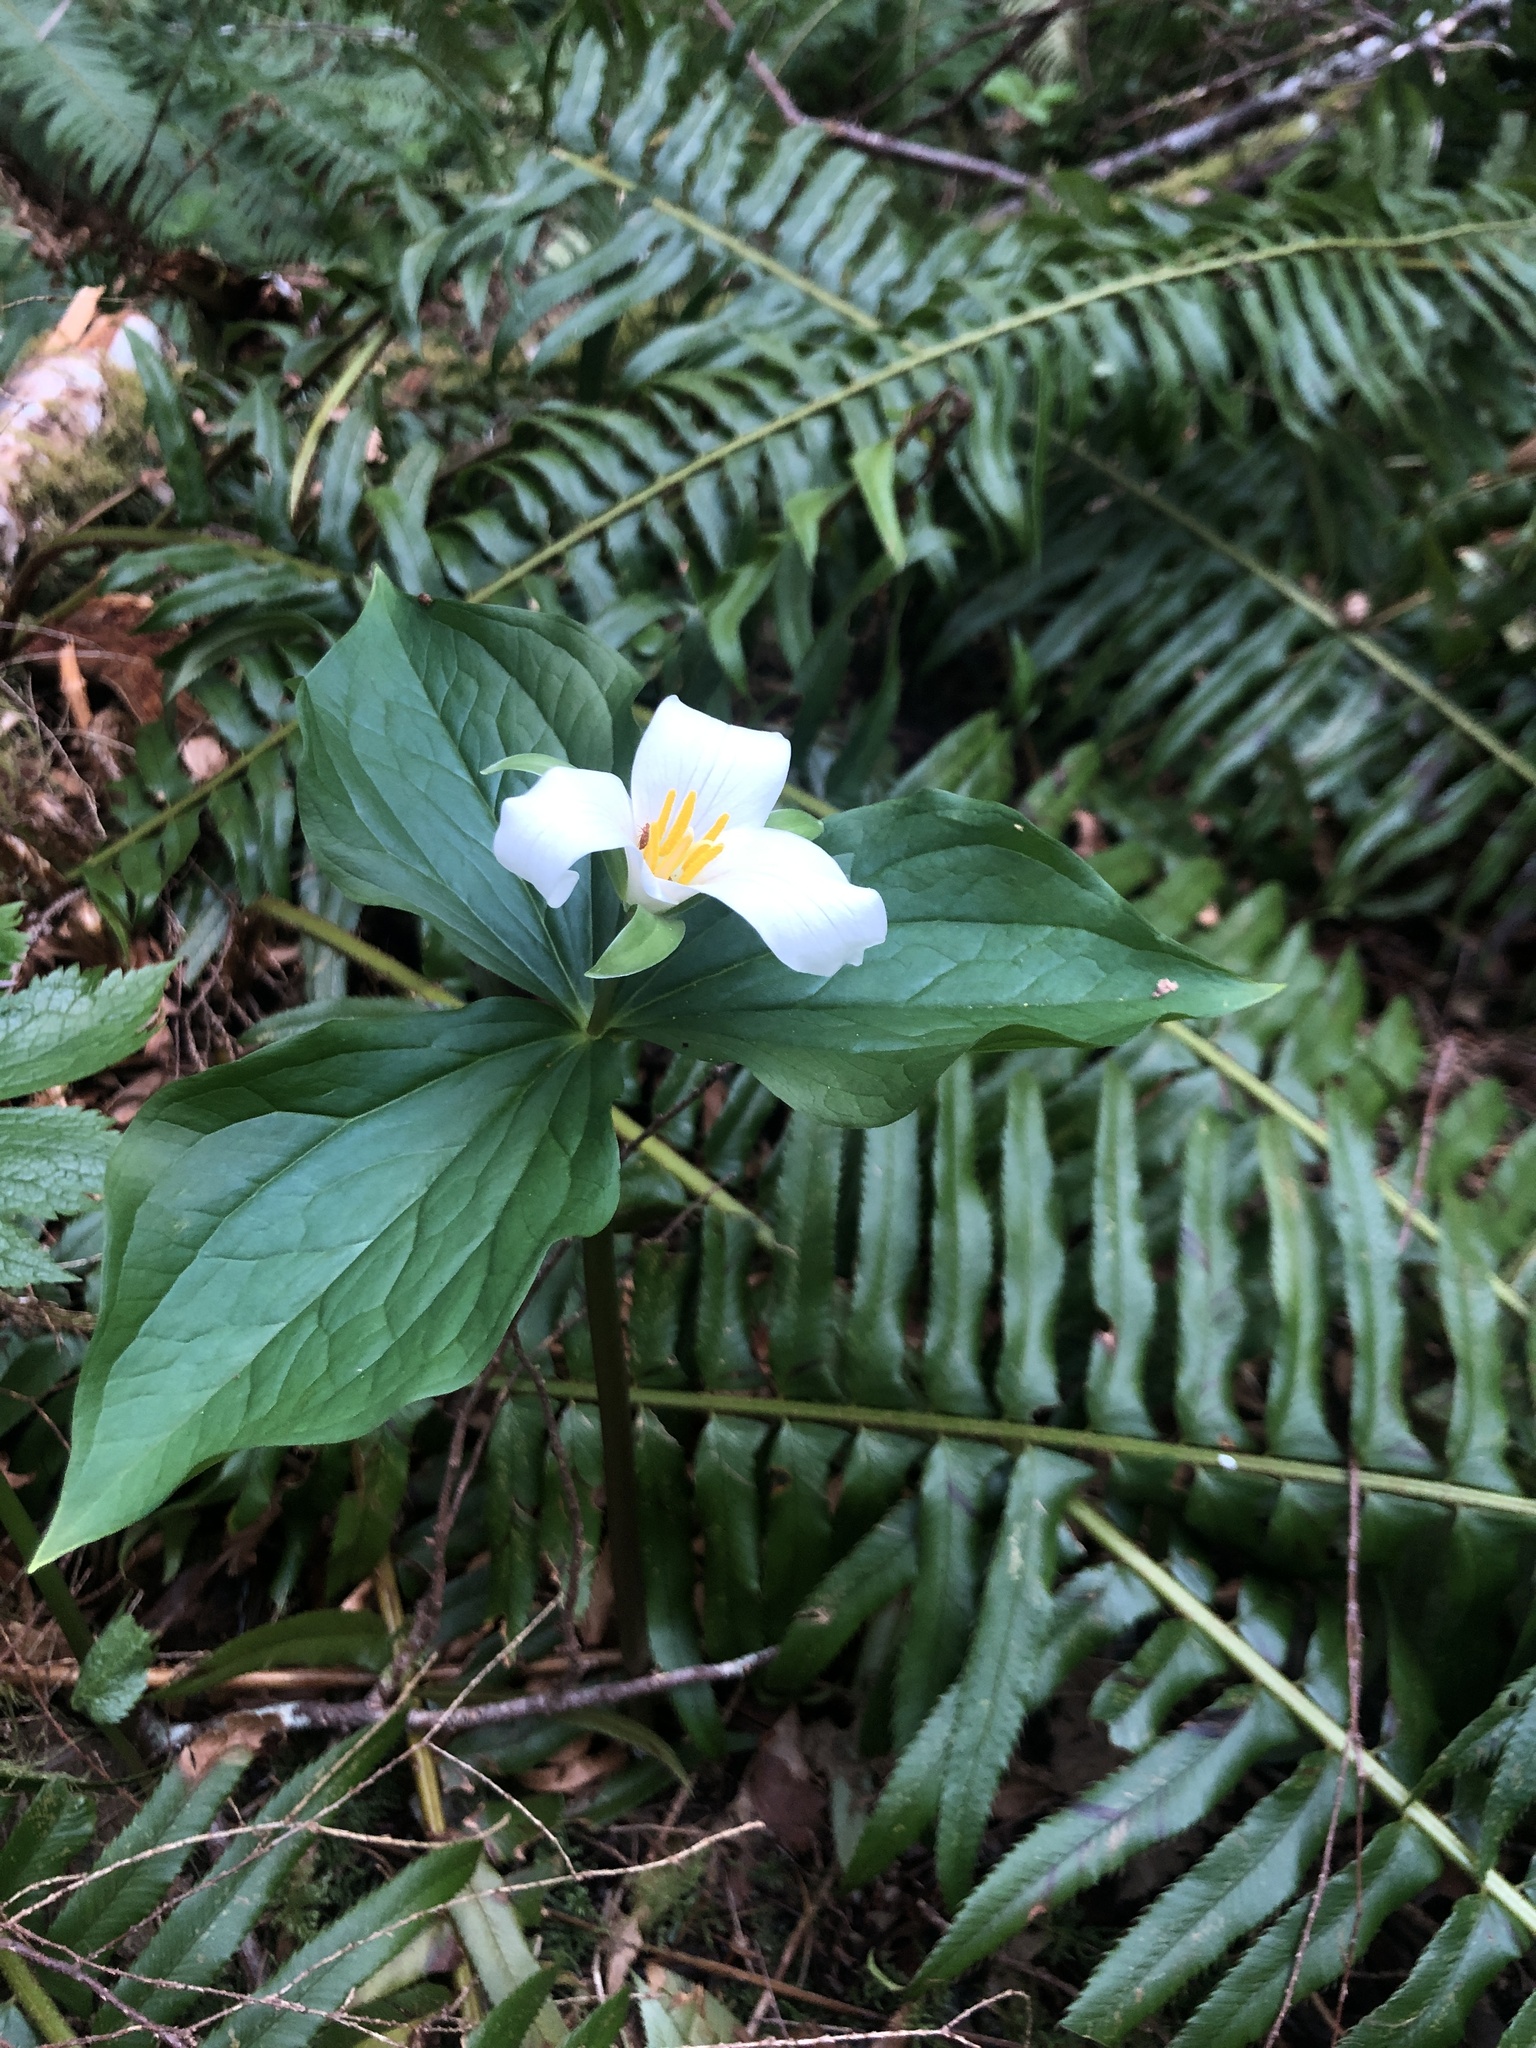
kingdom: Plantae
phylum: Tracheophyta
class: Liliopsida
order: Liliales
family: Melanthiaceae
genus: Trillium
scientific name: Trillium ovatum
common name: Pacific trillium
